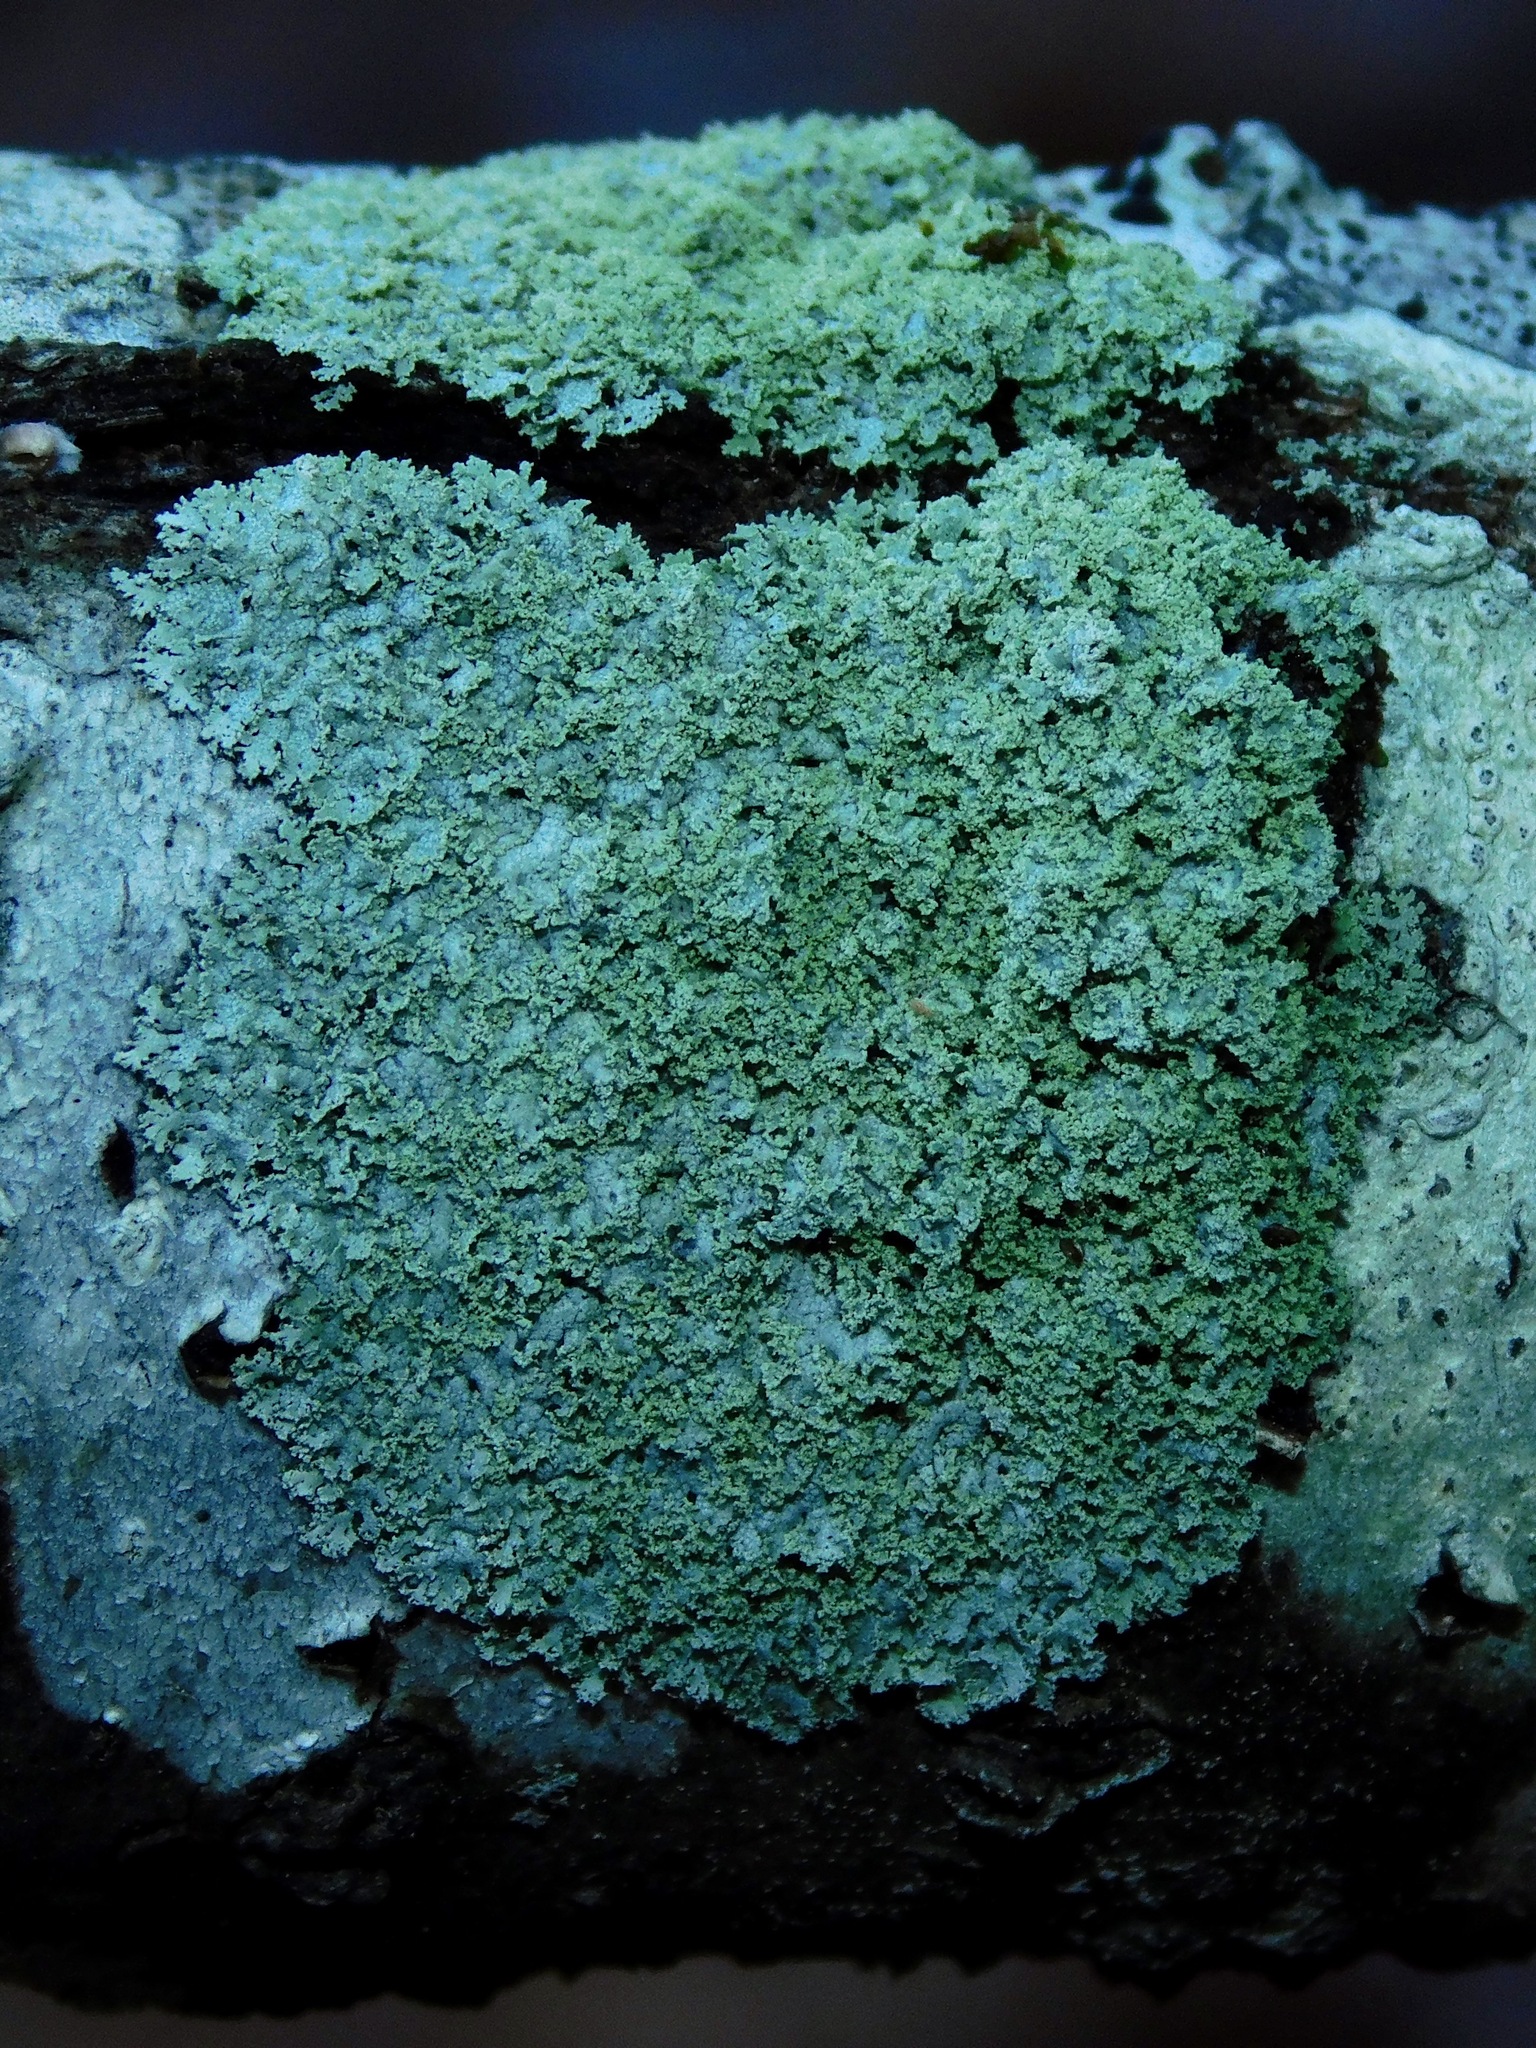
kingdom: Fungi
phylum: Ascomycota
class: Lecanoromycetes
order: Caliciales
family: Physciaceae
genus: Physcia
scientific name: Physcia millegrana
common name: Rosette lichen
